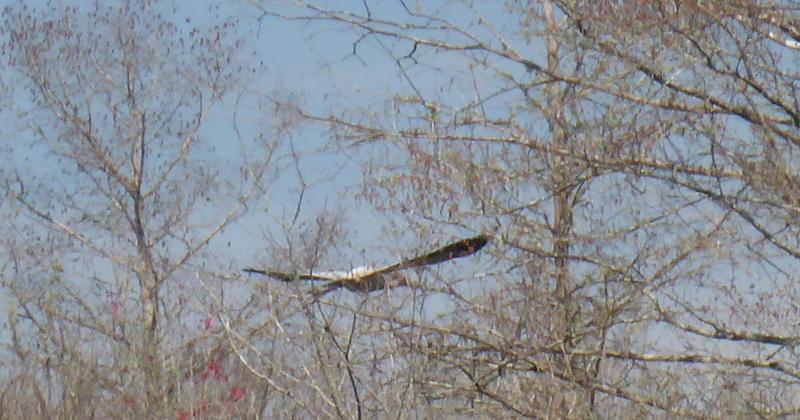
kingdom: Animalia
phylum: Chordata
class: Aves
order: Ciconiiformes
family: Ciconiidae
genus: Mycteria
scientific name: Mycteria americana
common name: Wood stork
